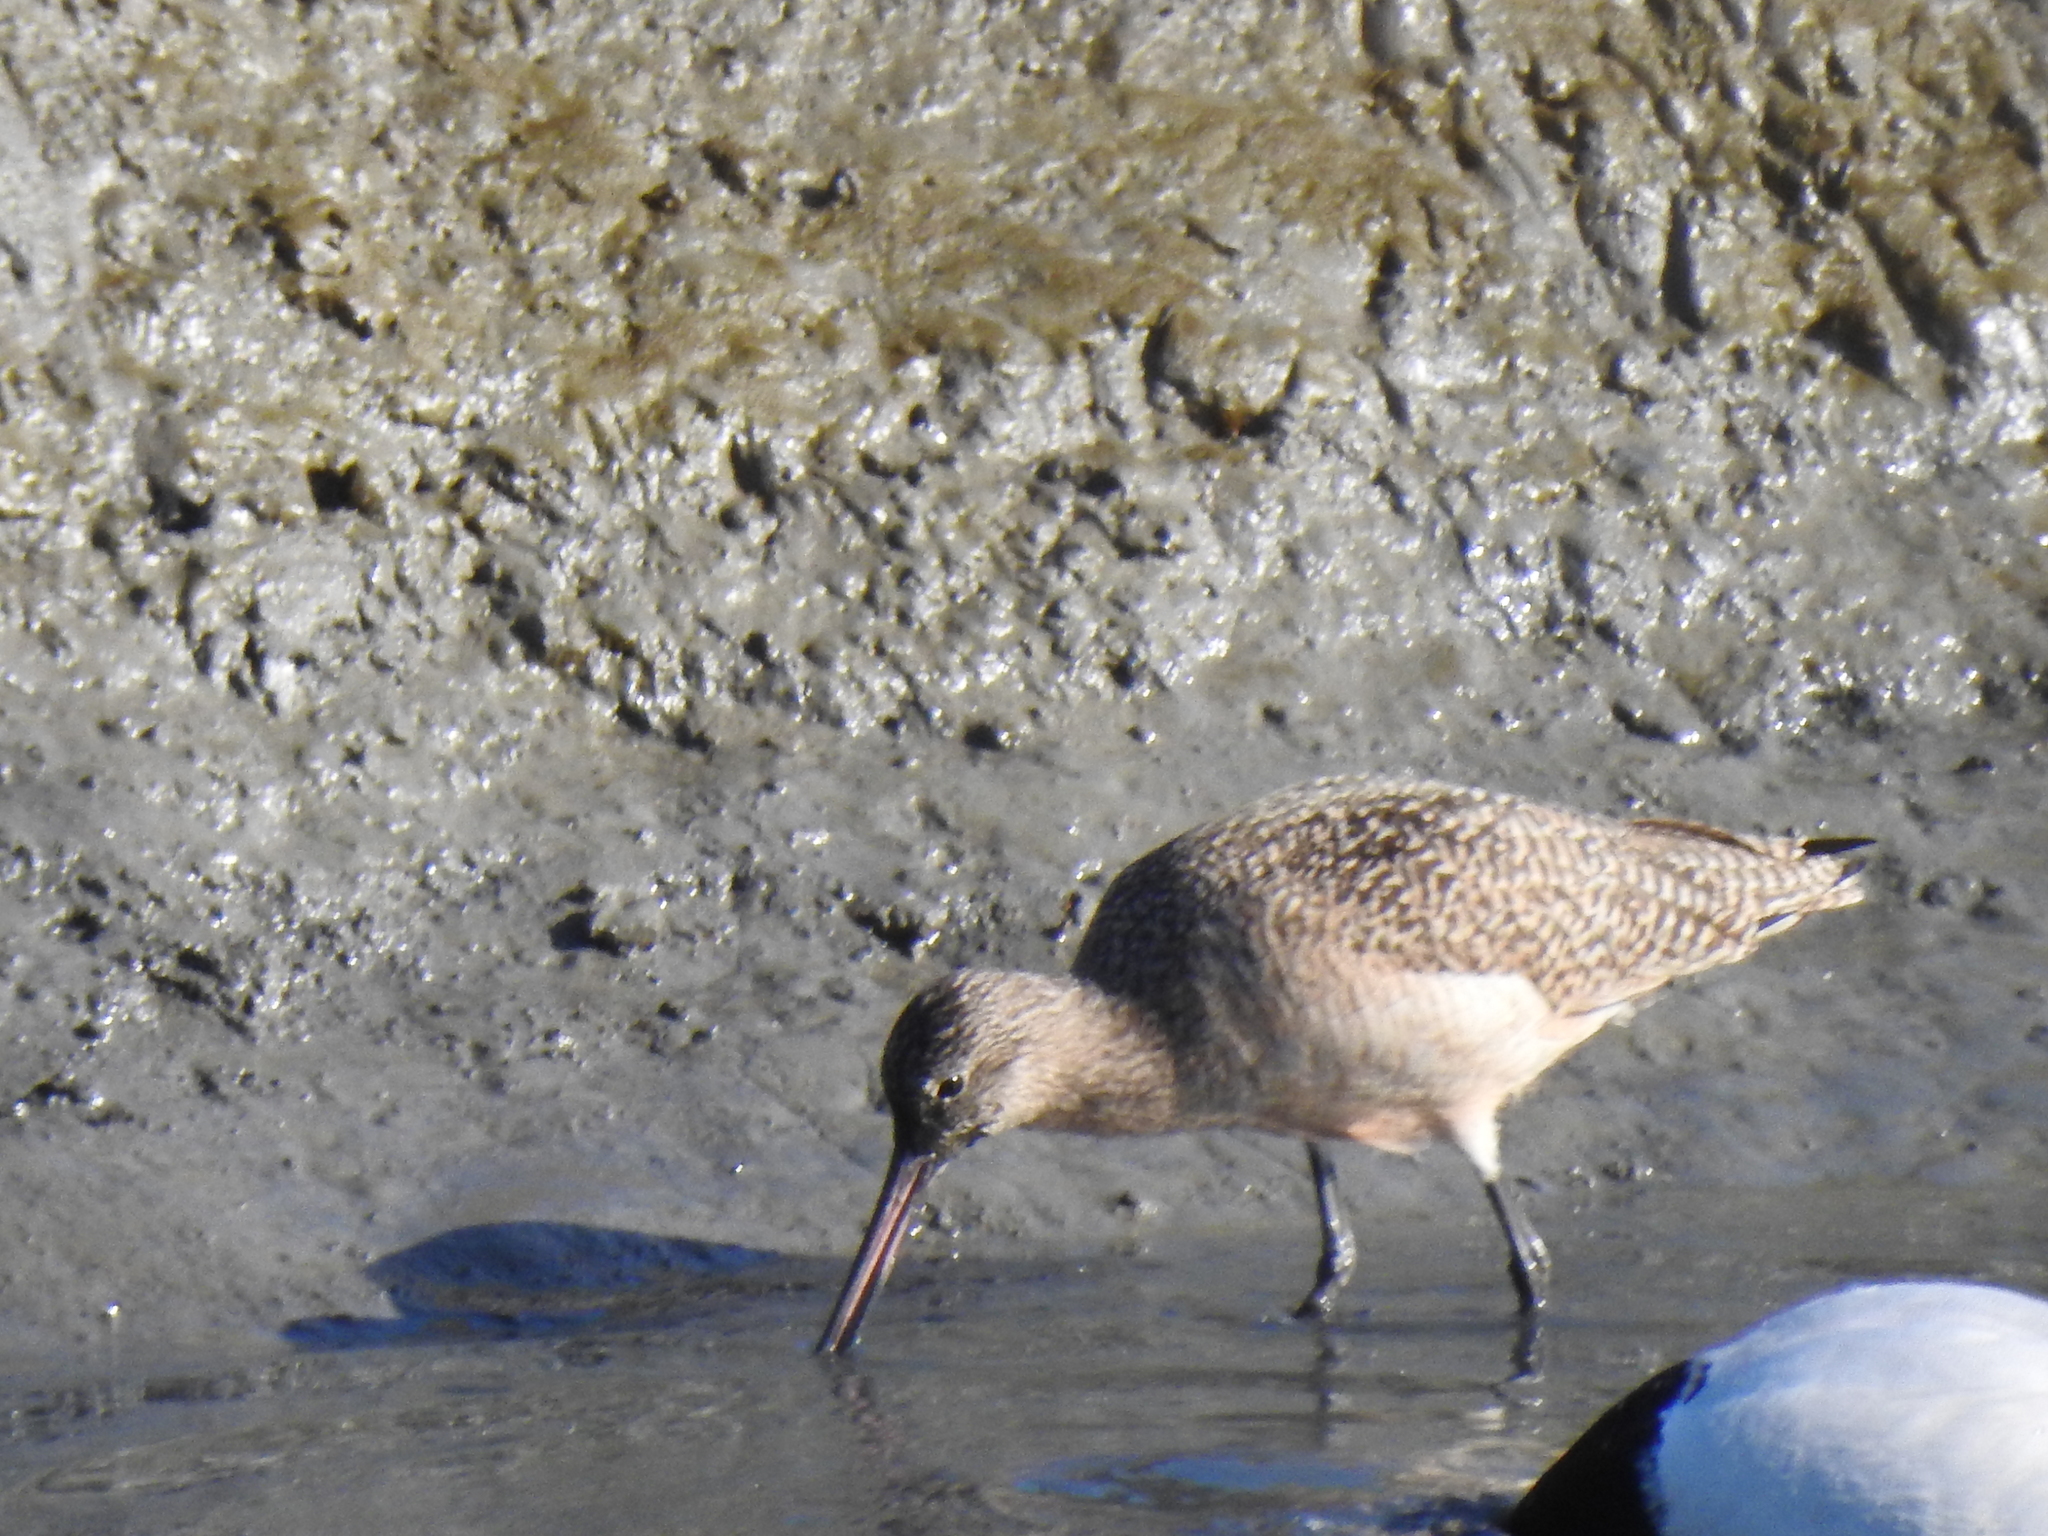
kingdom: Animalia
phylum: Chordata
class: Aves
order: Charadriiformes
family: Scolopacidae
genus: Limosa
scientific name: Limosa fedoa
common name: Marbled godwit
